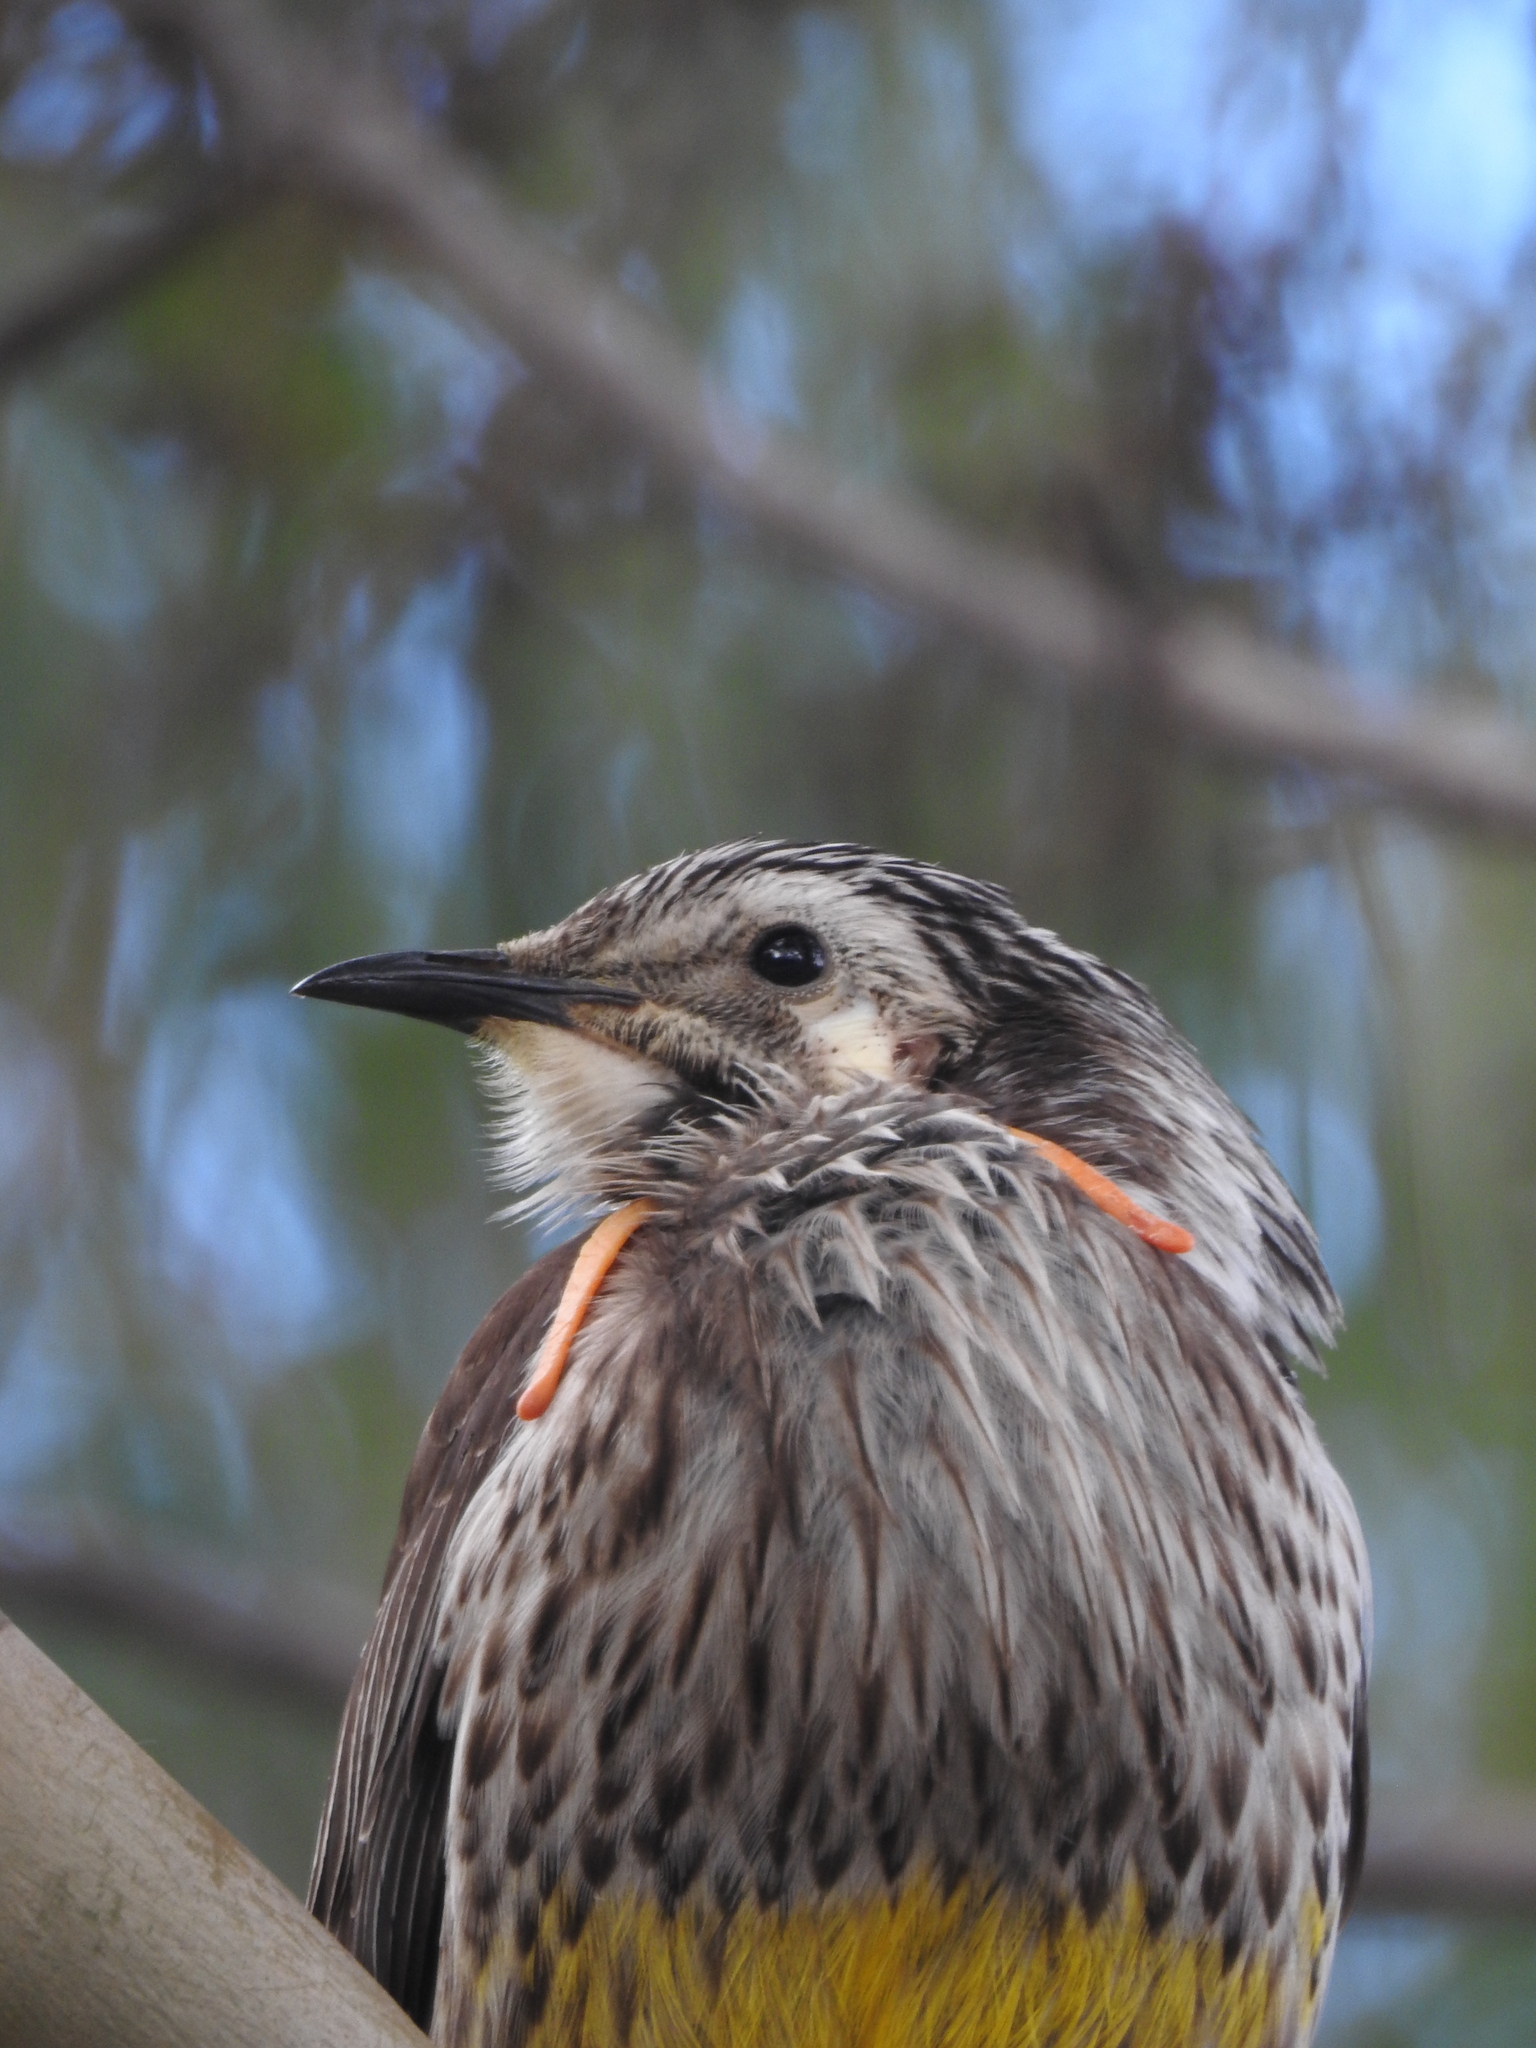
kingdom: Animalia
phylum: Chordata
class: Aves
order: Passeriformes
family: Meliphagidae
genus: Anthochaera
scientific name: Anthochaera paradoxa
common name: Yellow wattlebird
